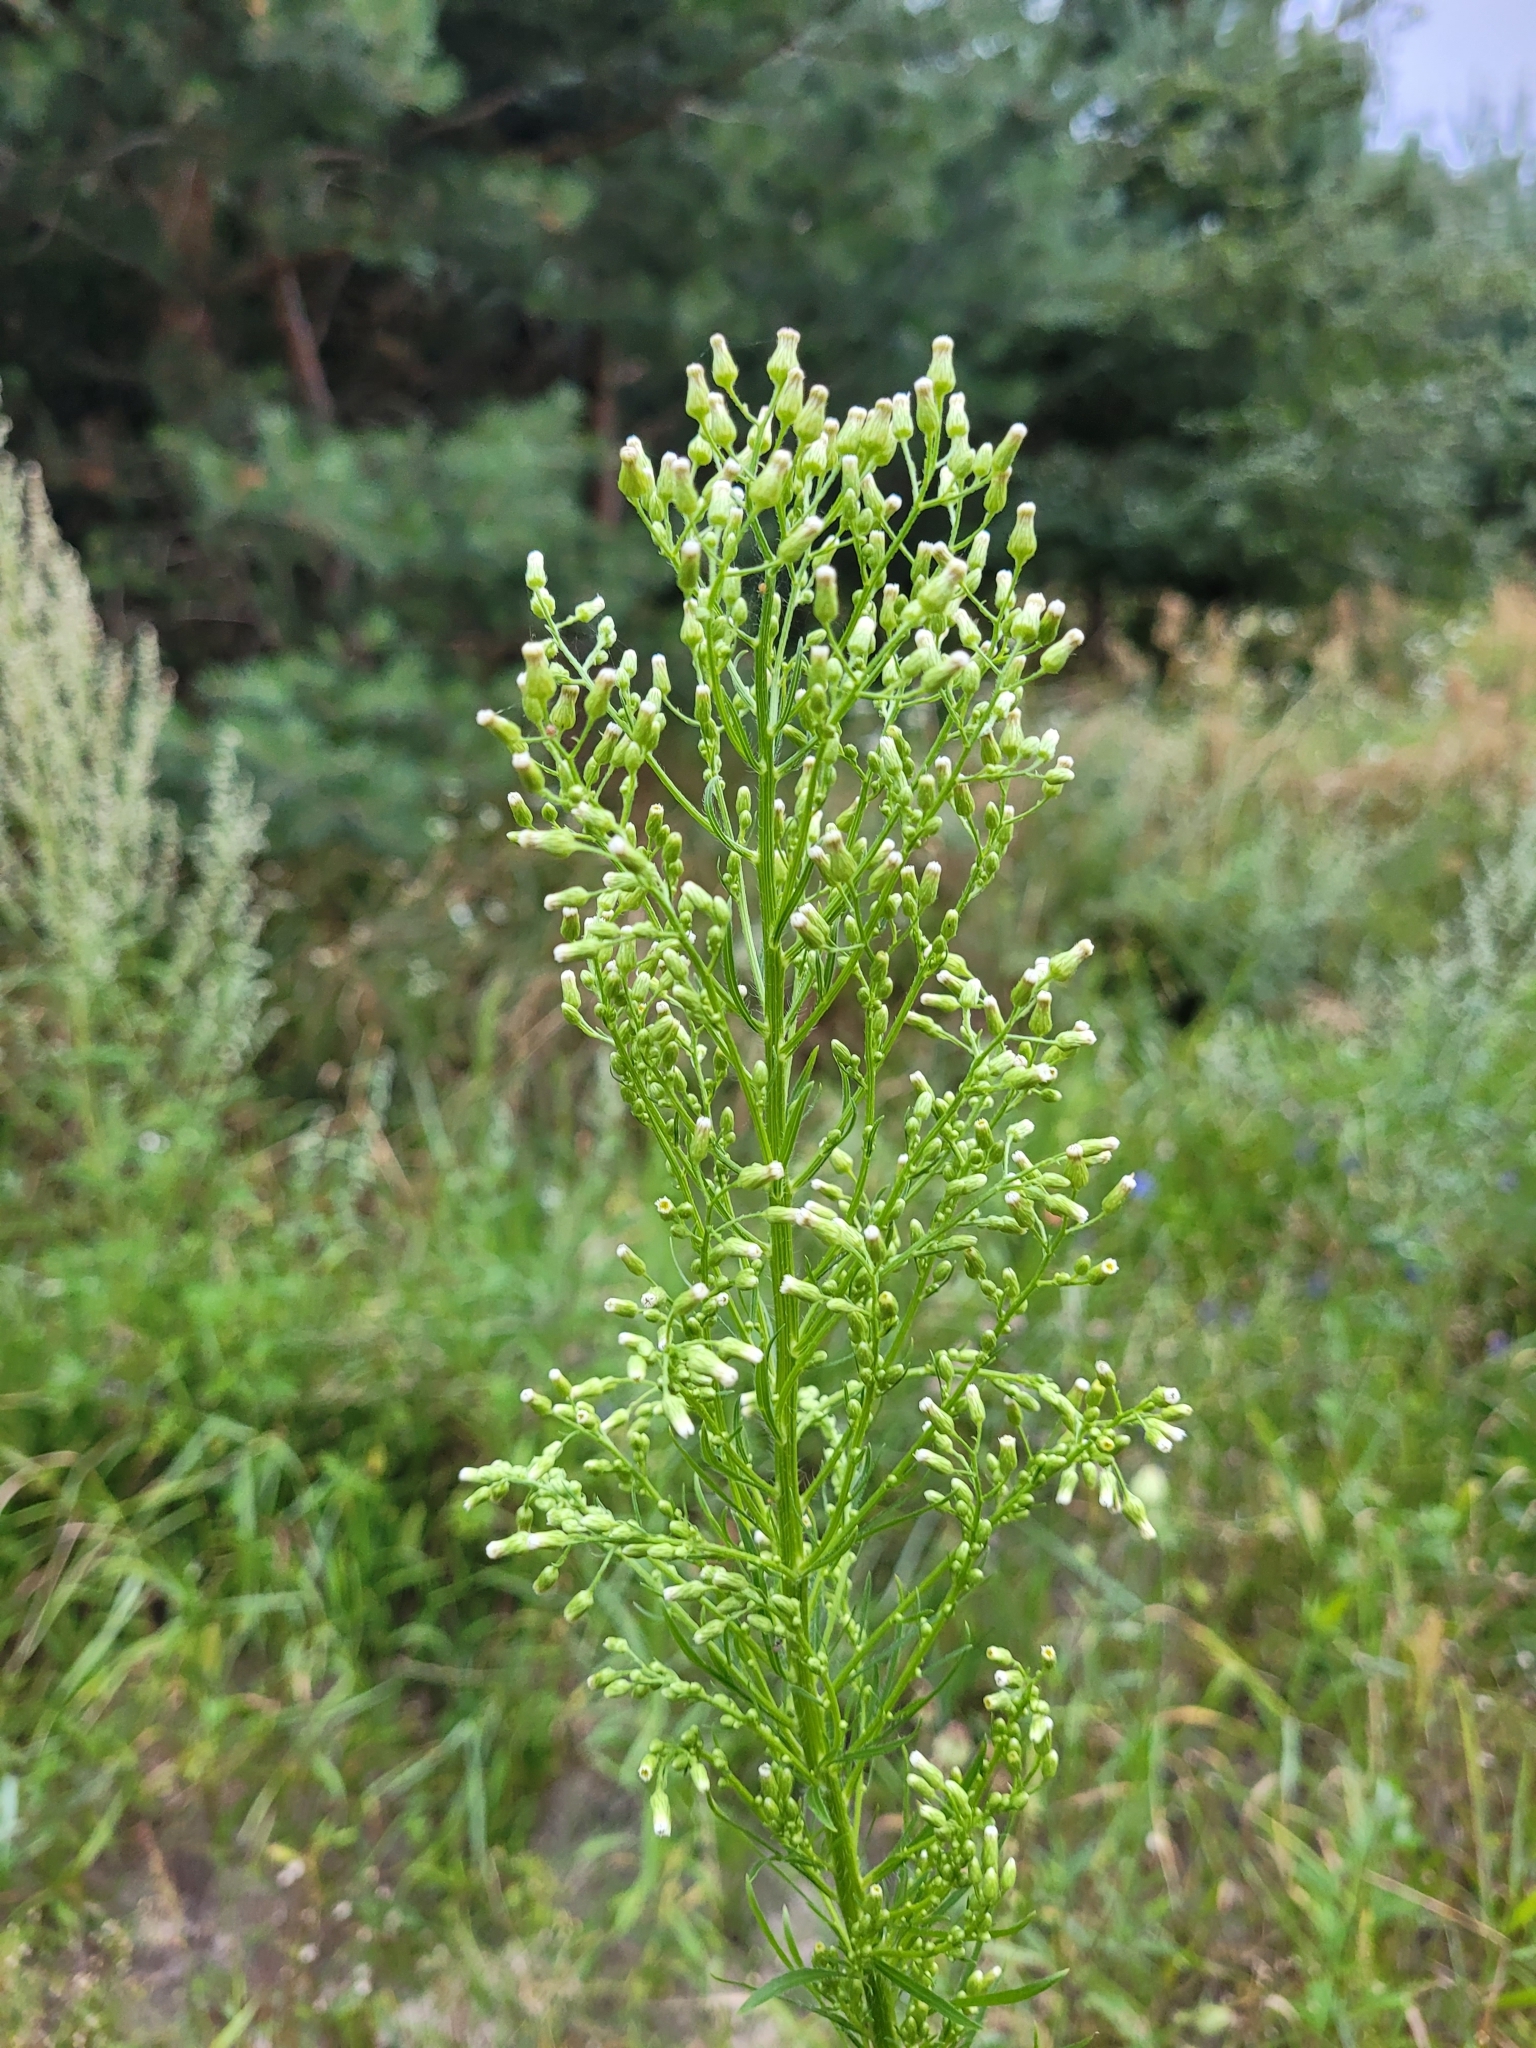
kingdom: Plantae
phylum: Tracheophyta
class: Magnoliopsida
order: Asterales
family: Asteraceae
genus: Erigeron
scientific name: Erigeron canadensis
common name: Canadian fleabane
